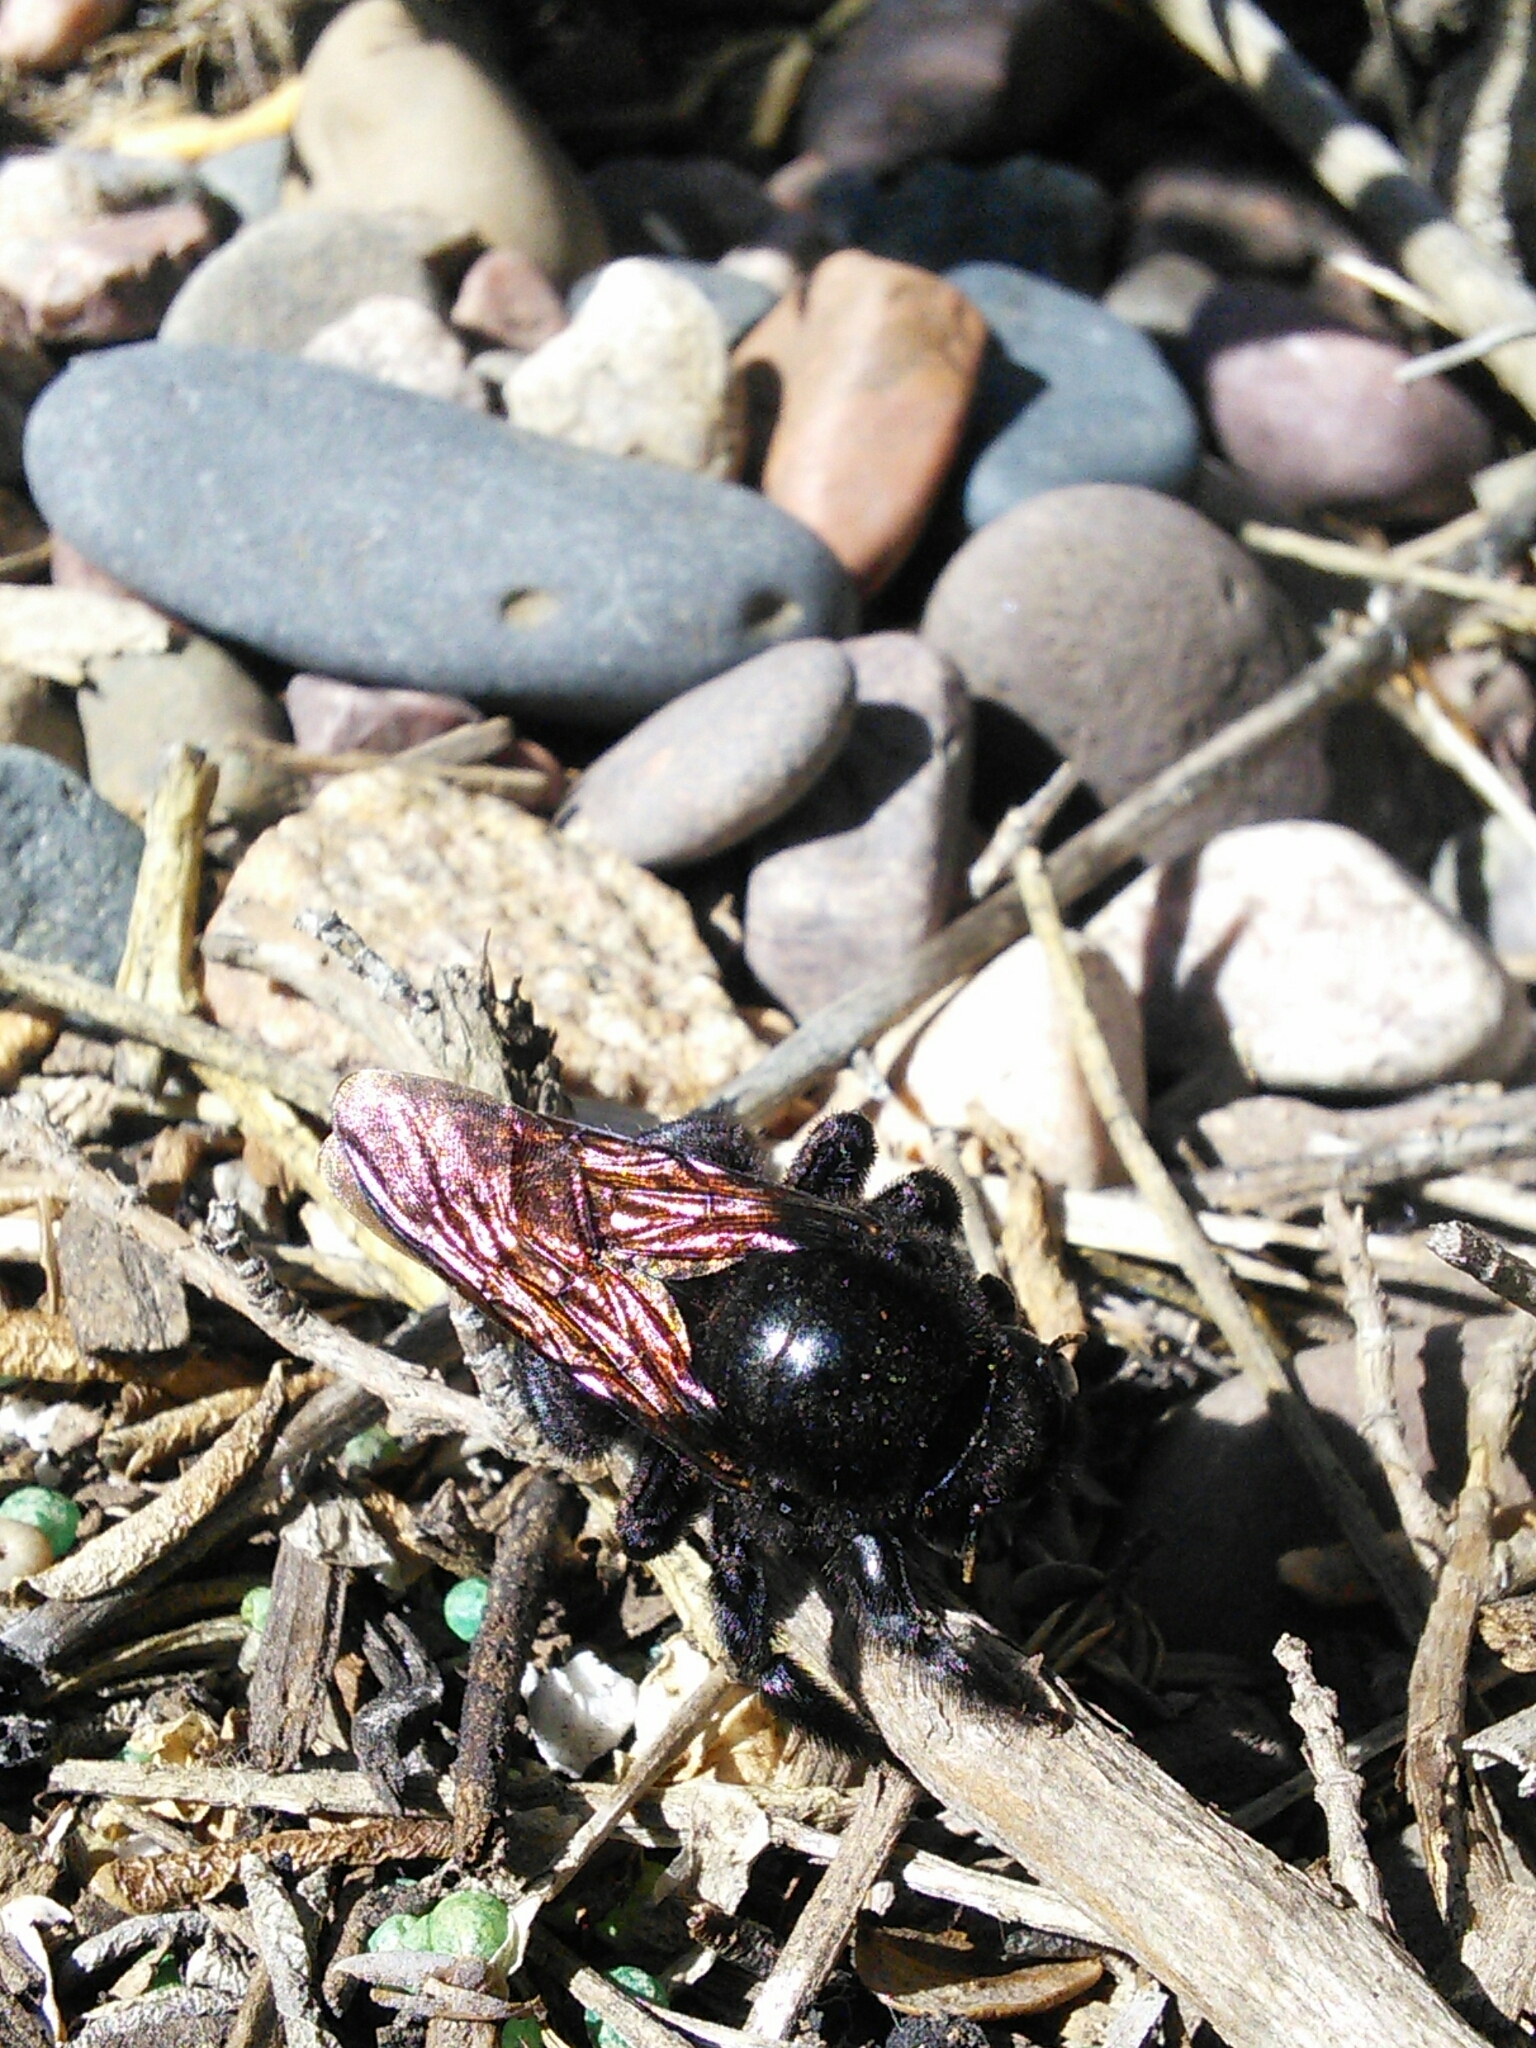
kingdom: Animalia
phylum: Arthropoda
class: Insecta
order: Hymenoptera
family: Apidae
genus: Xylocopa
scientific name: Xylocopa sonorina
